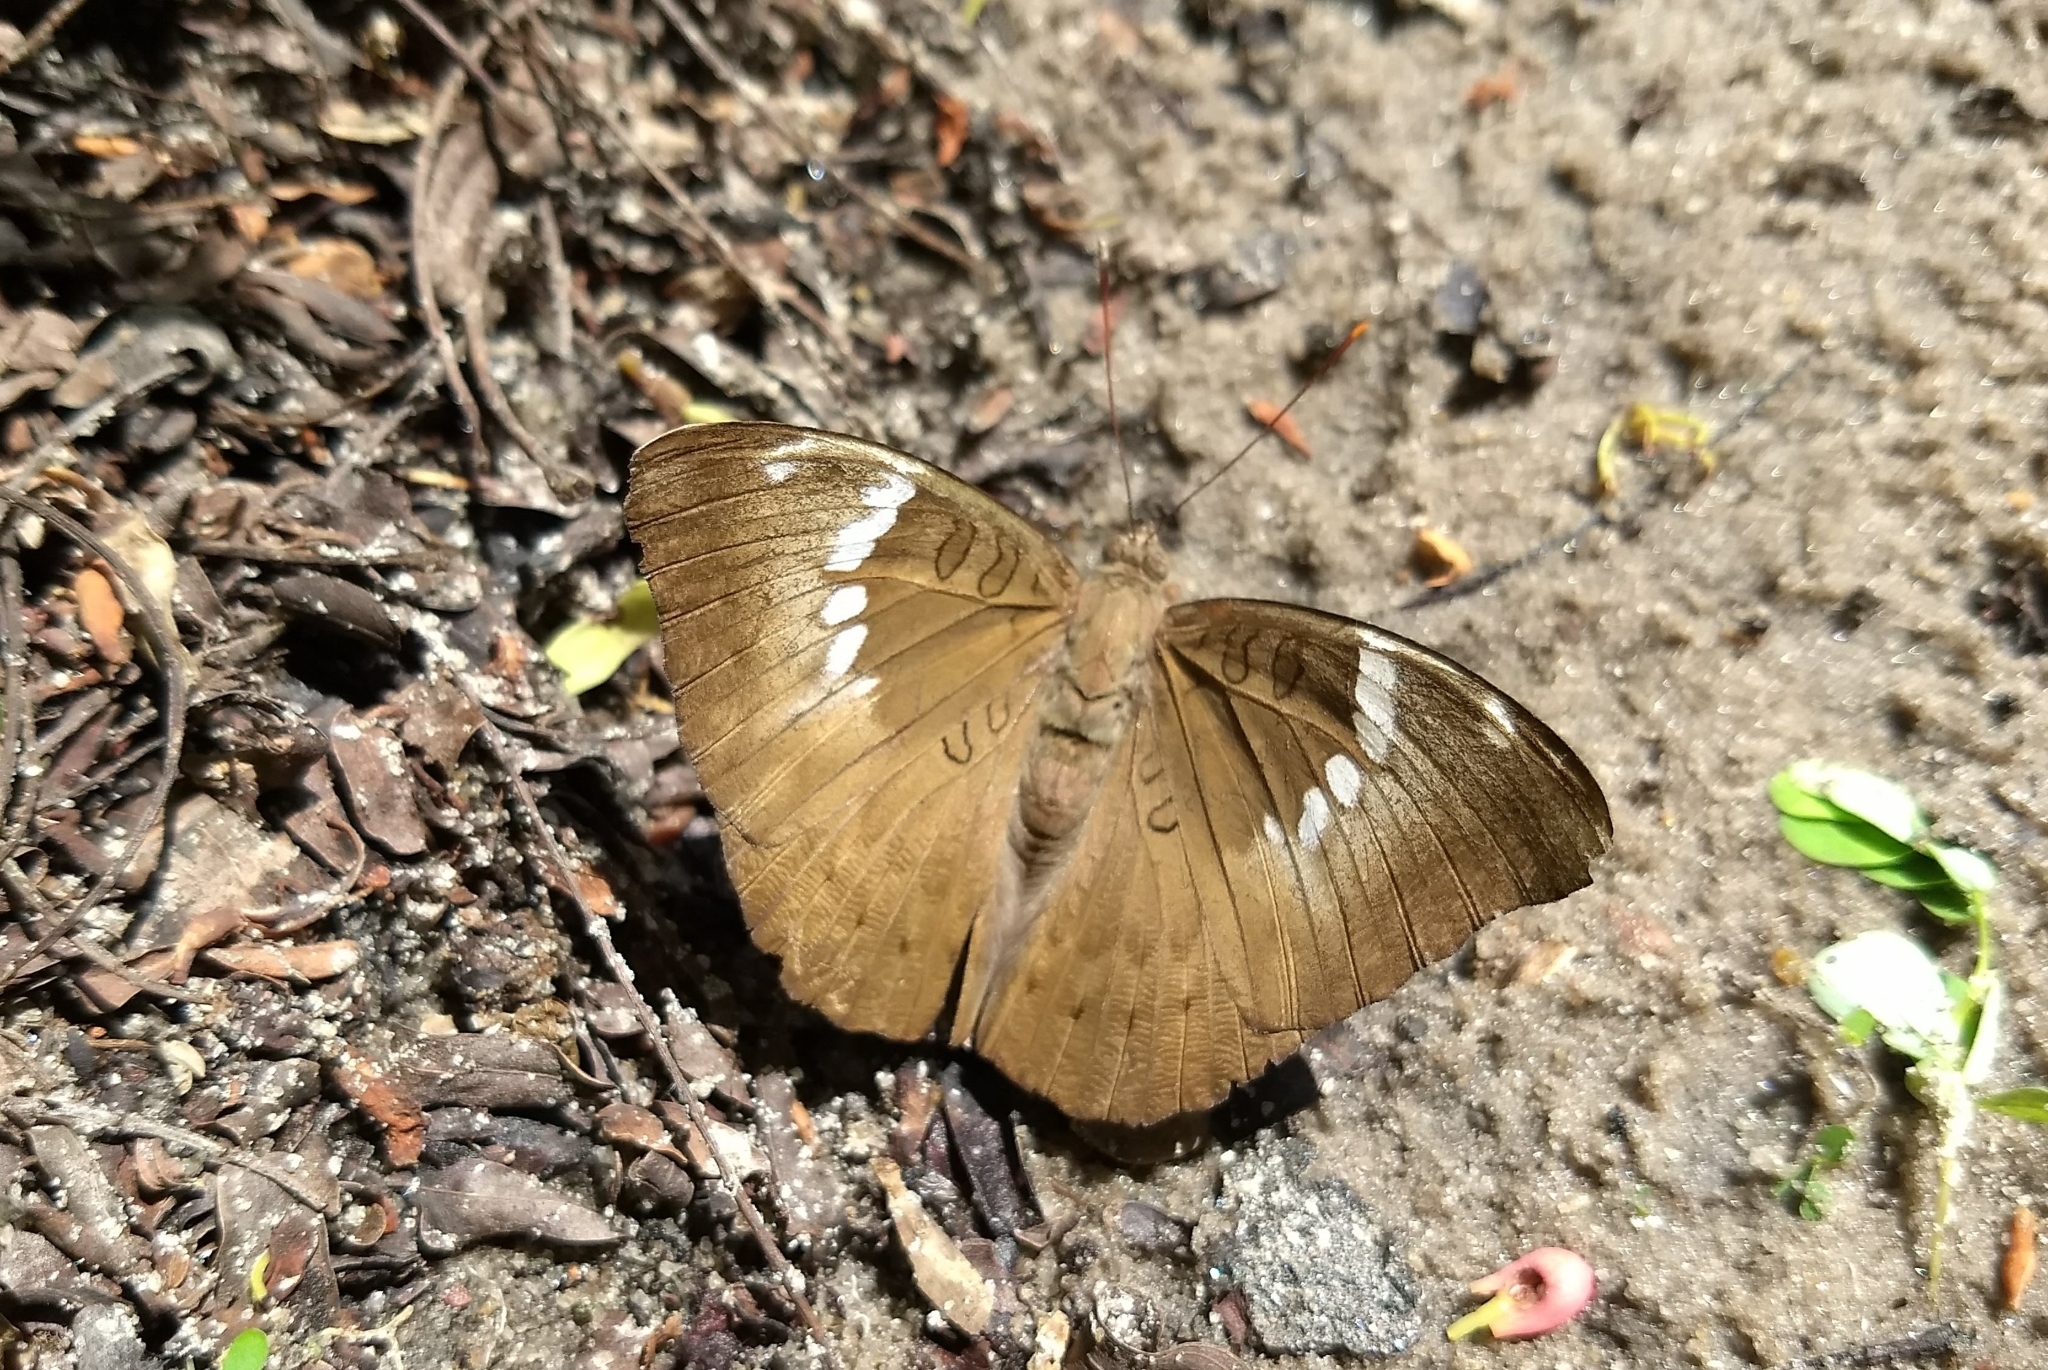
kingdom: Animalia
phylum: Arthropoda
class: Insecta
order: Lepidoptera
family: Nymphalidae
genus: Euthalia
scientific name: Euthalia aconthea
